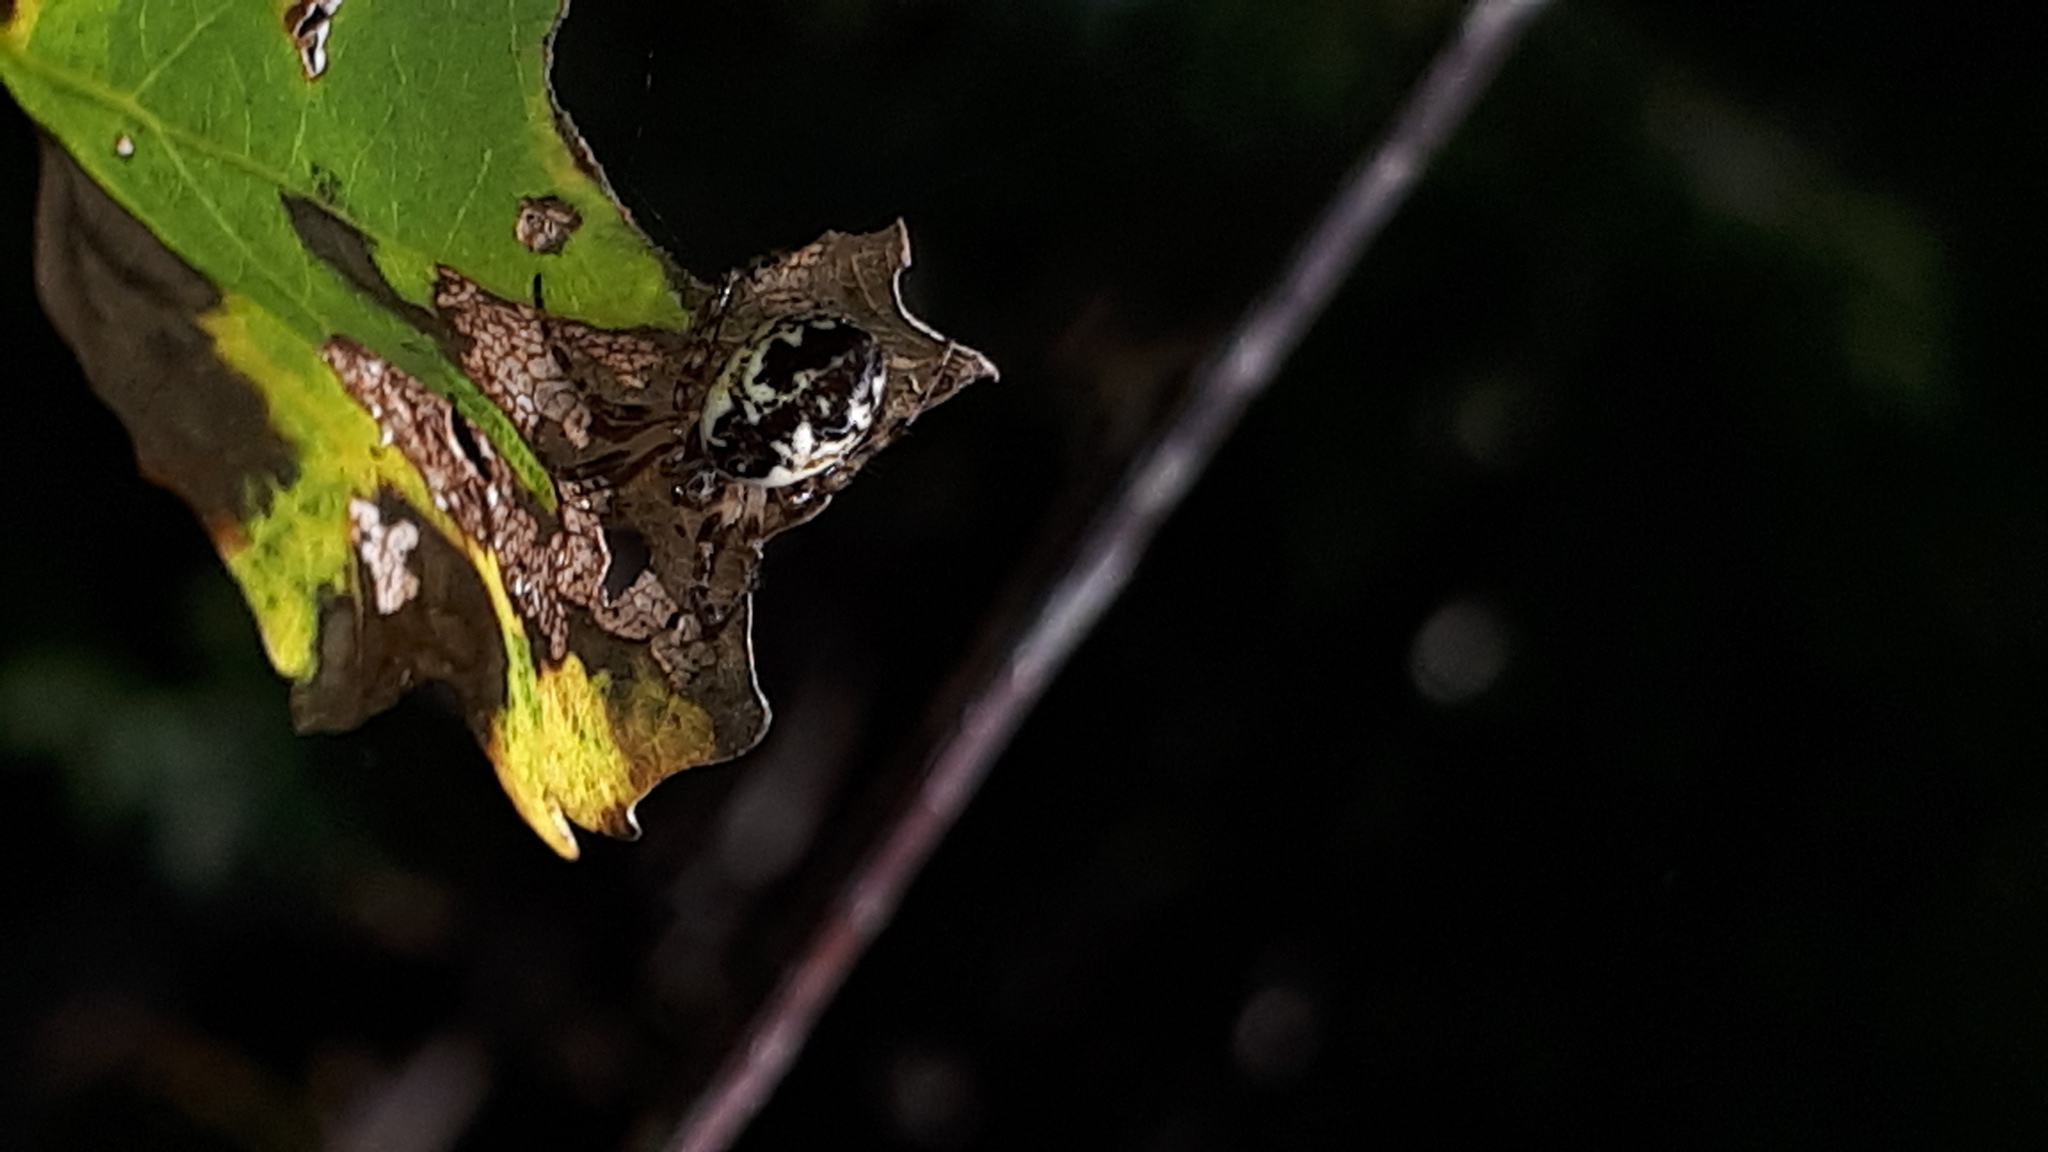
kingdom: Animalia
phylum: Arthropoda
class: Arachnida
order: Araneae
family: Araneidae
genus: Cyclosa
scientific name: Cyclosa conica
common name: Conical trashline orbweaver
